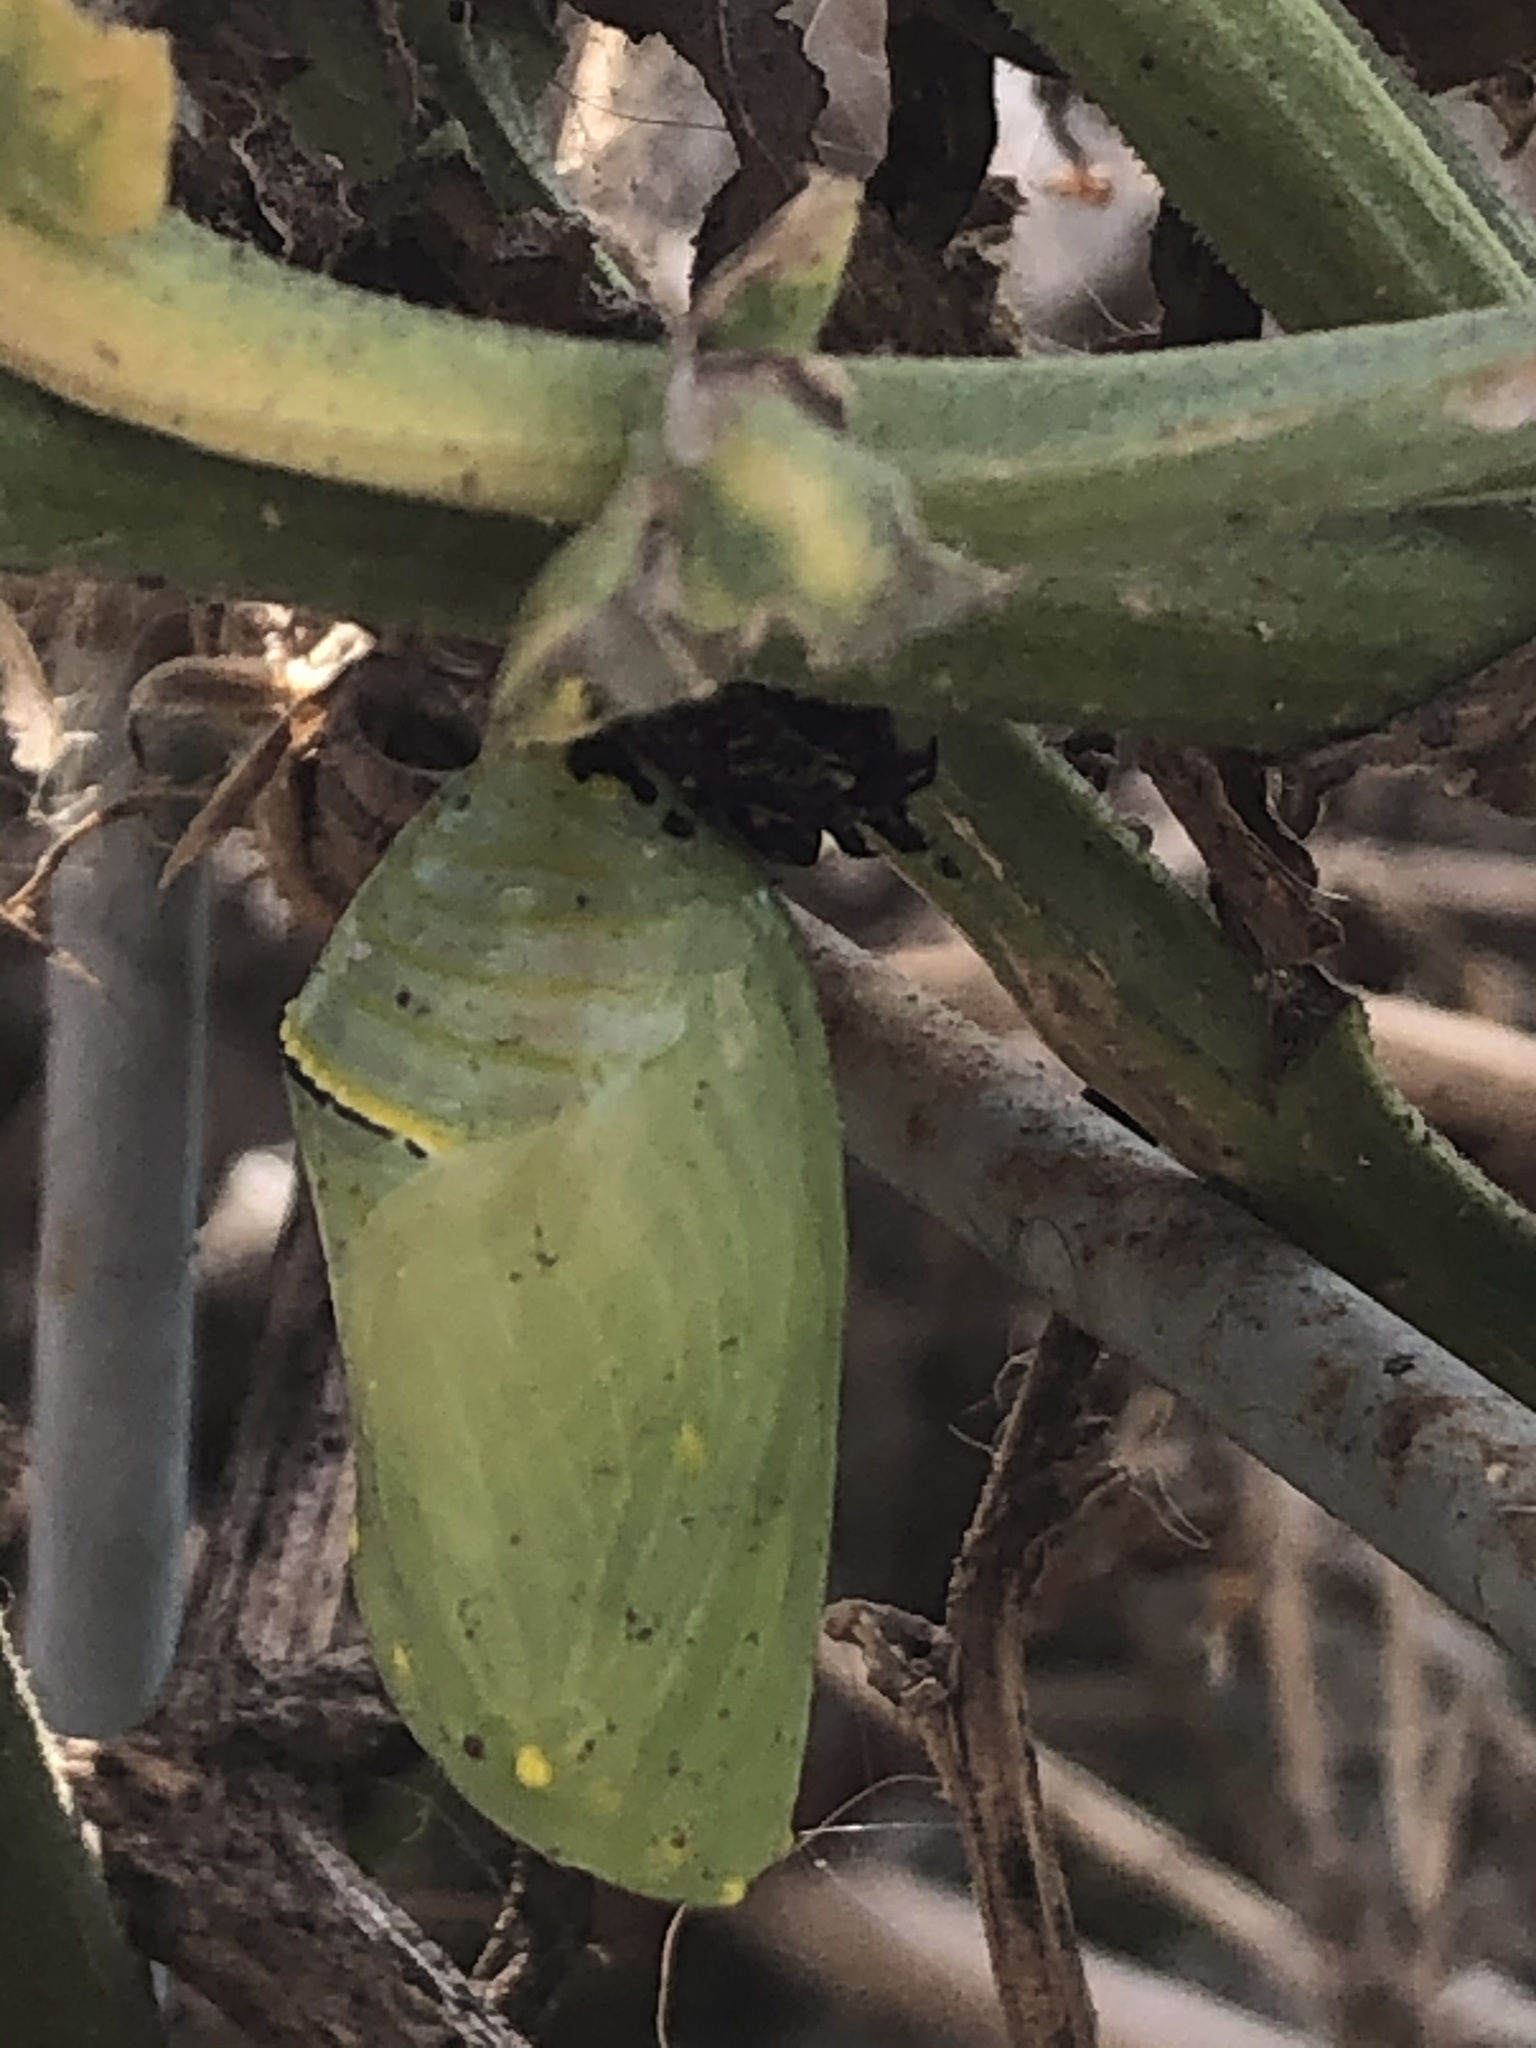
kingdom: Animalia
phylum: Arthropoda
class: Insecta
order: Lepidoptera
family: Nymphalidae
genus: Danaus
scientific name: Danaus plexippus
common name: Monarch
